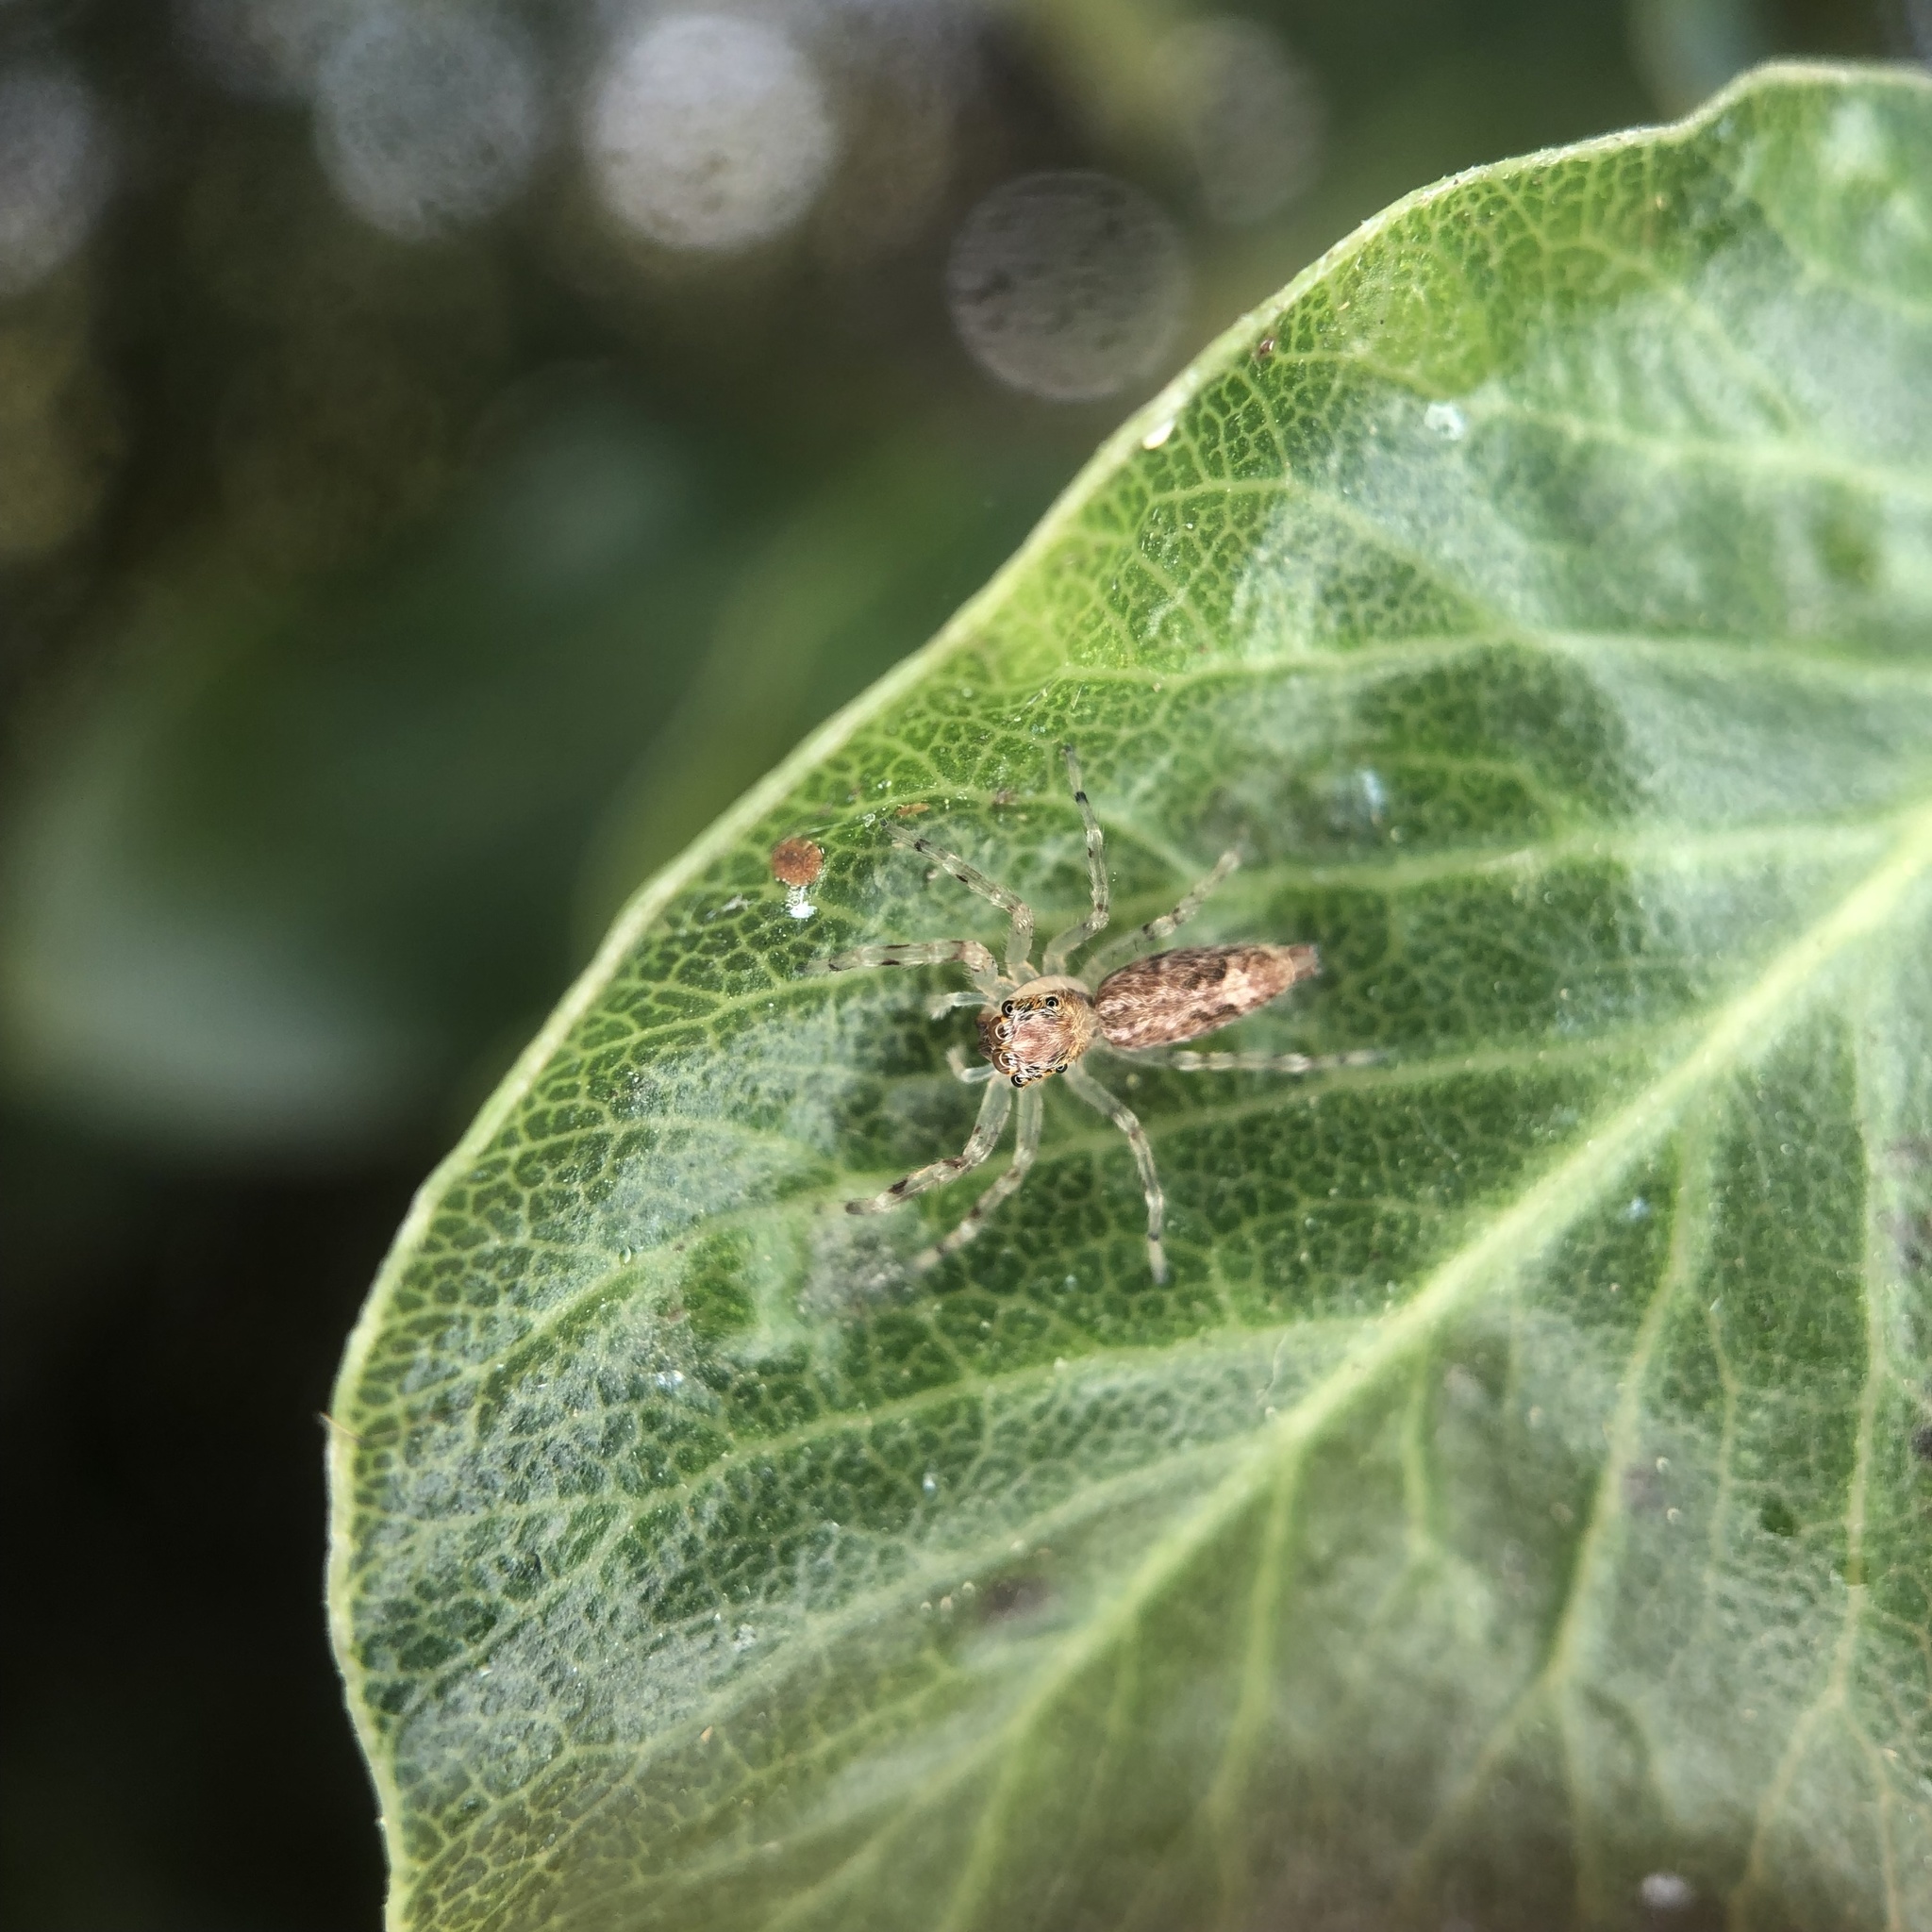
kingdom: Animalia
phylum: Arthropoda
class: Arachnida
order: Araneae
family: Salticidae
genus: Helpis
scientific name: Helpis minitabunda
